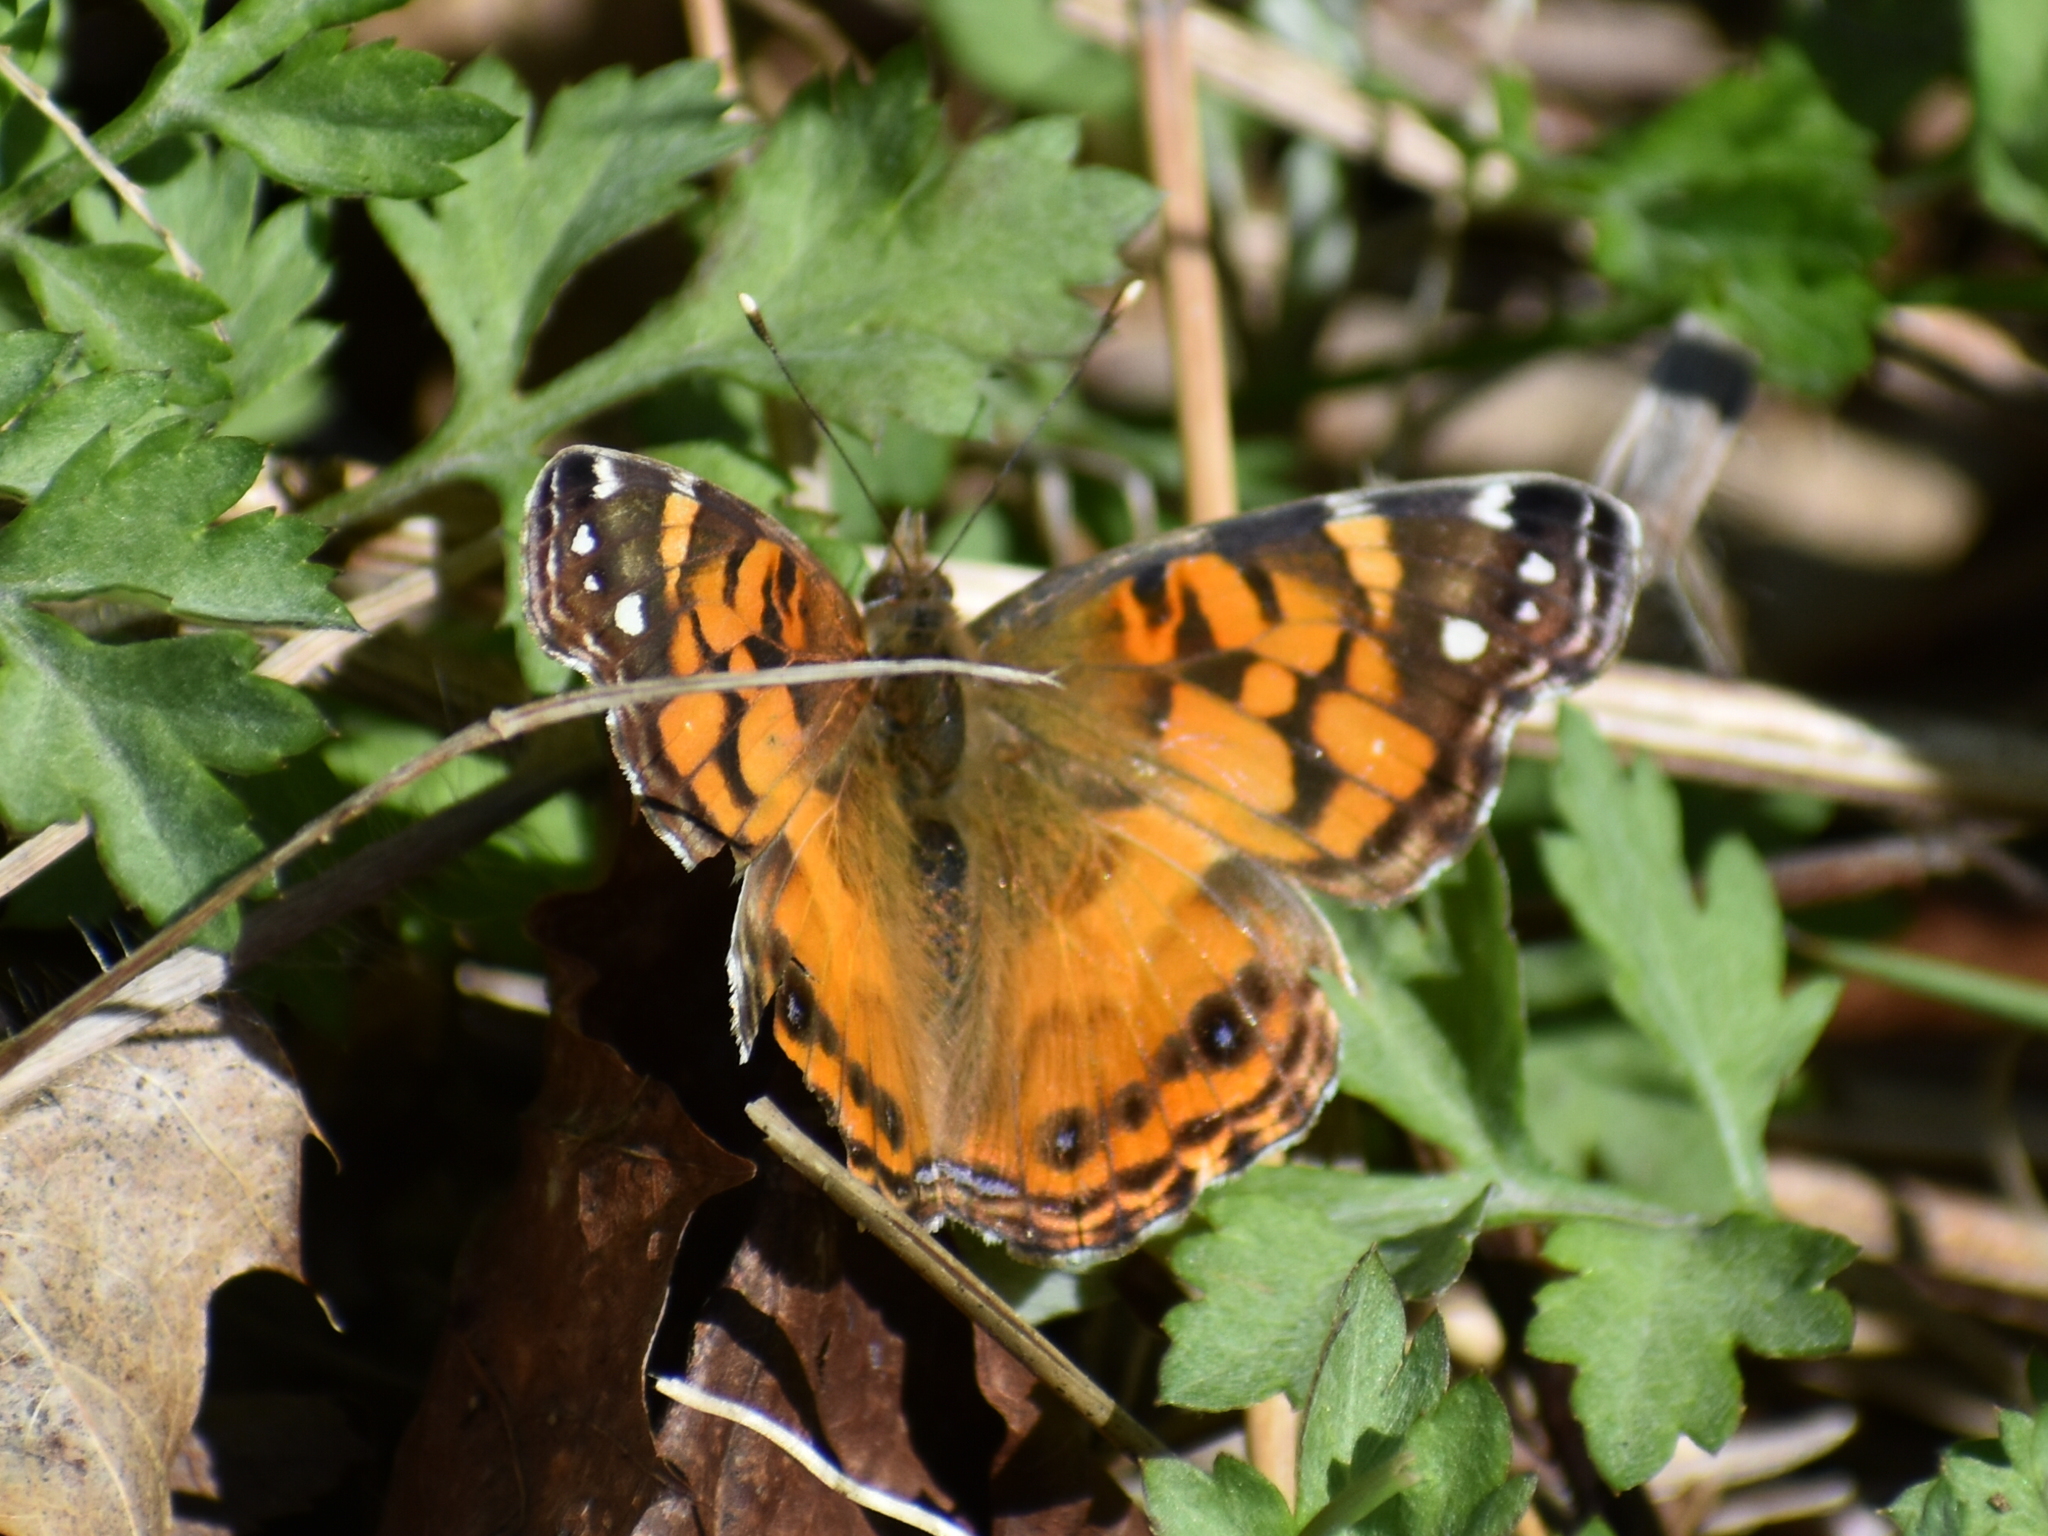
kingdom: Animalia
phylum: Arthropoda
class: Insecta
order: Lepidoptera
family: Nymphalidae
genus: Vanessa
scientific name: Vanessa virginiensis
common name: American lady
